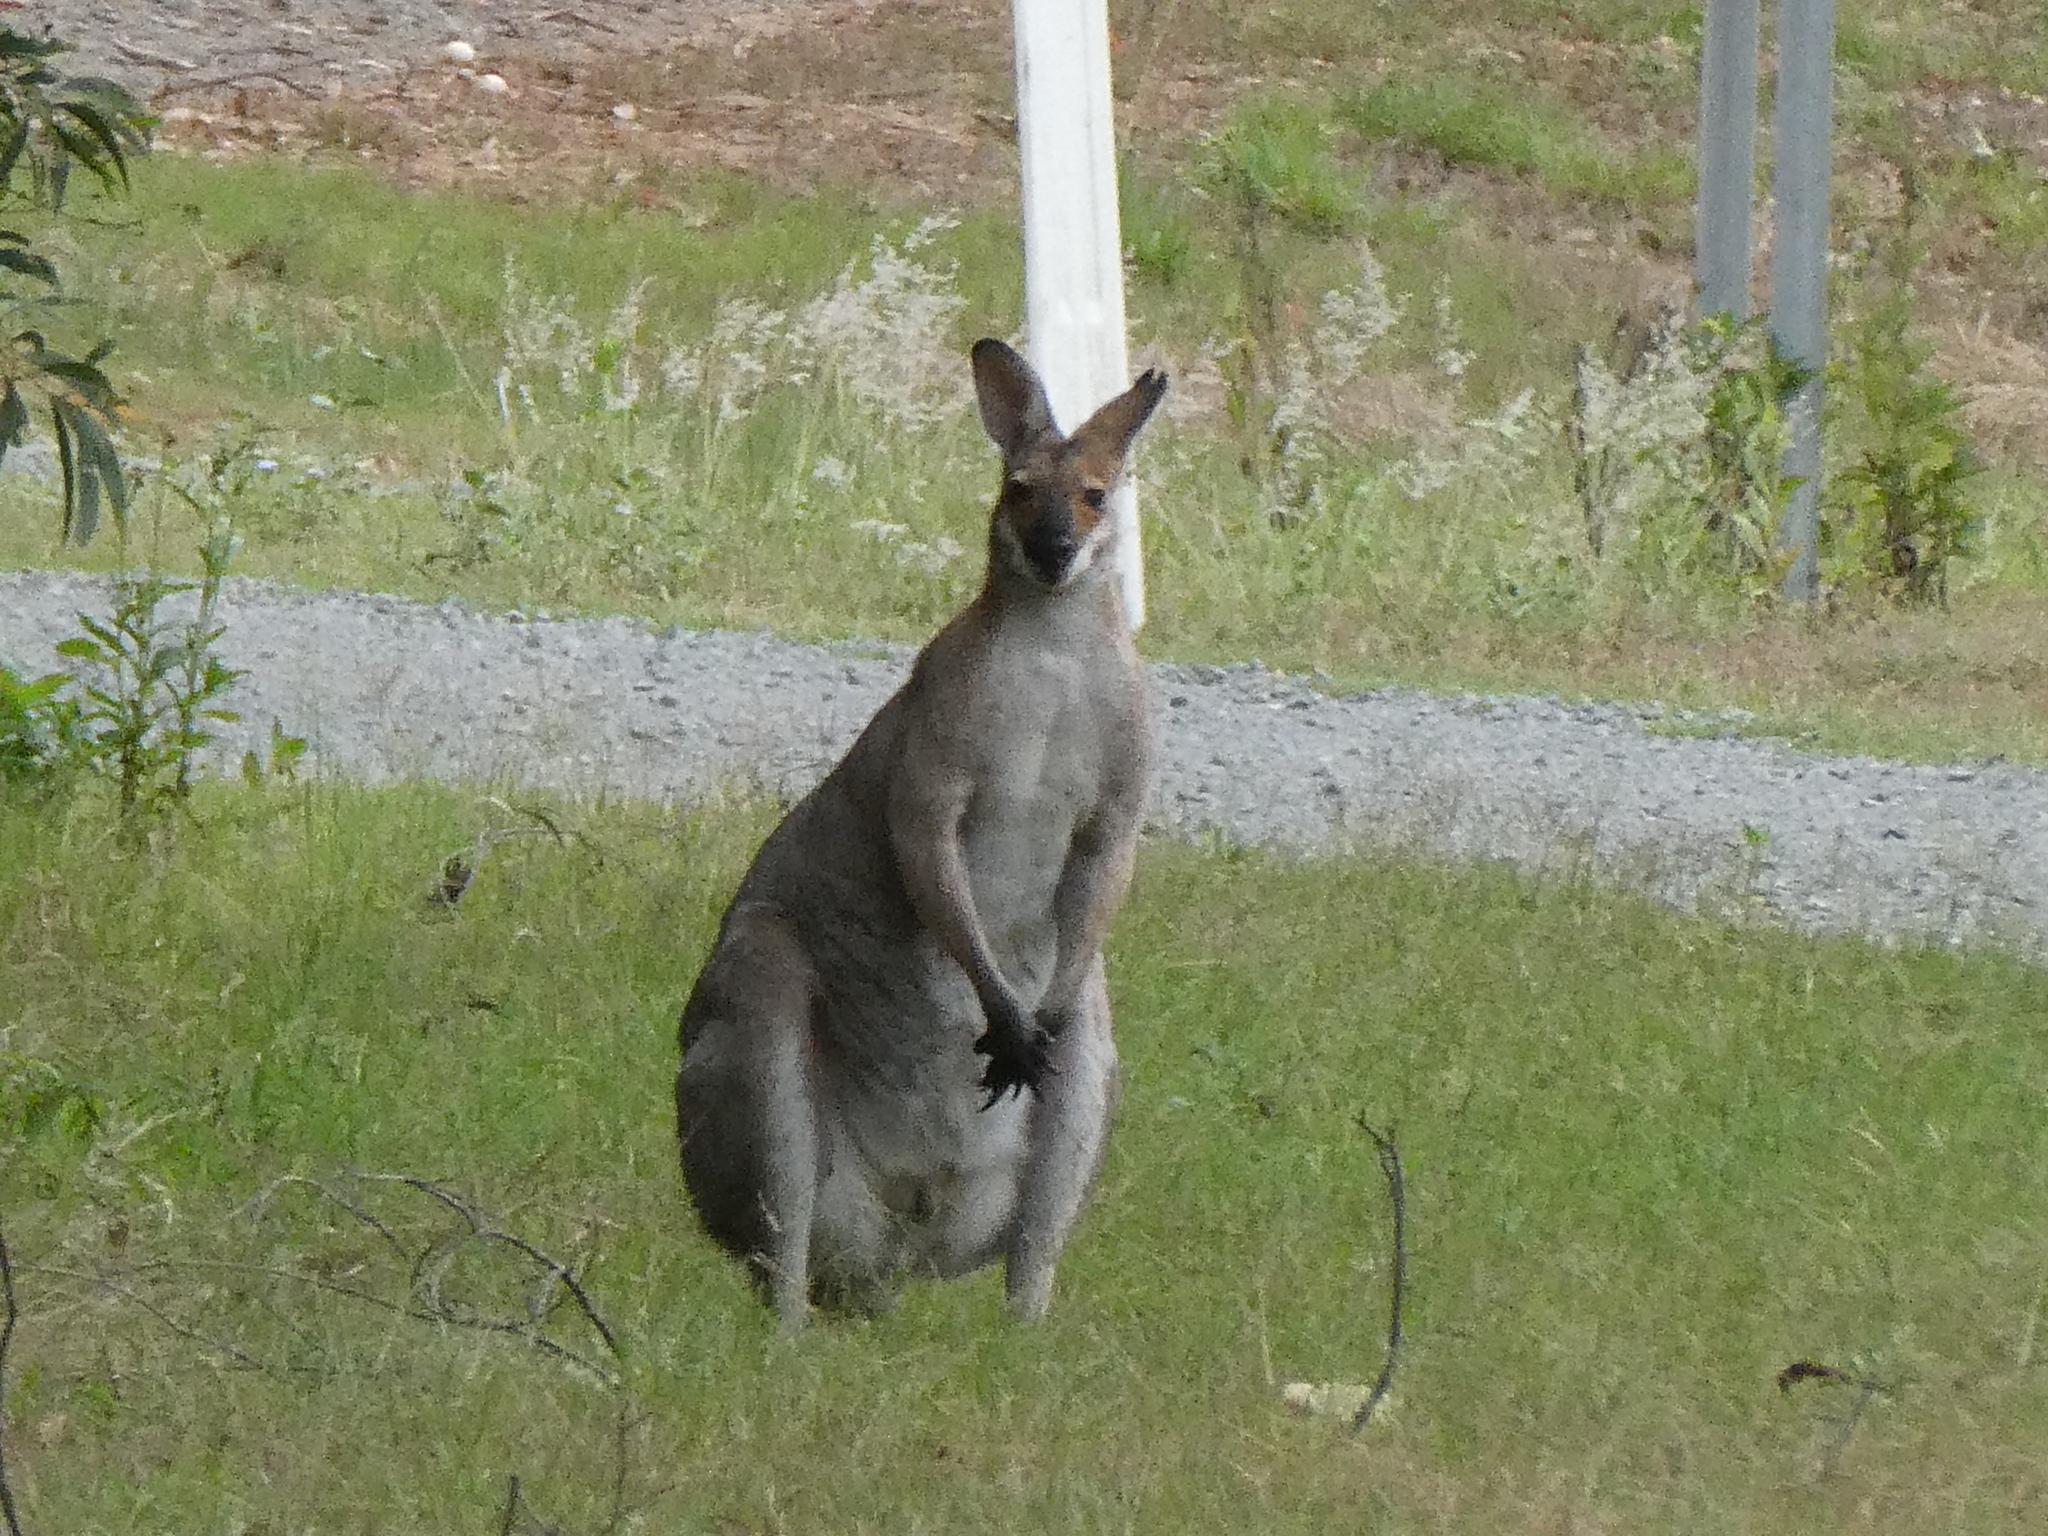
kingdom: Animalia
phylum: Chordata
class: Mammalia
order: Diprotodontia
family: Macropodidae
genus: Notamacropus
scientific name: Notamacropus rufogriseus
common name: Red-necked wallaby
